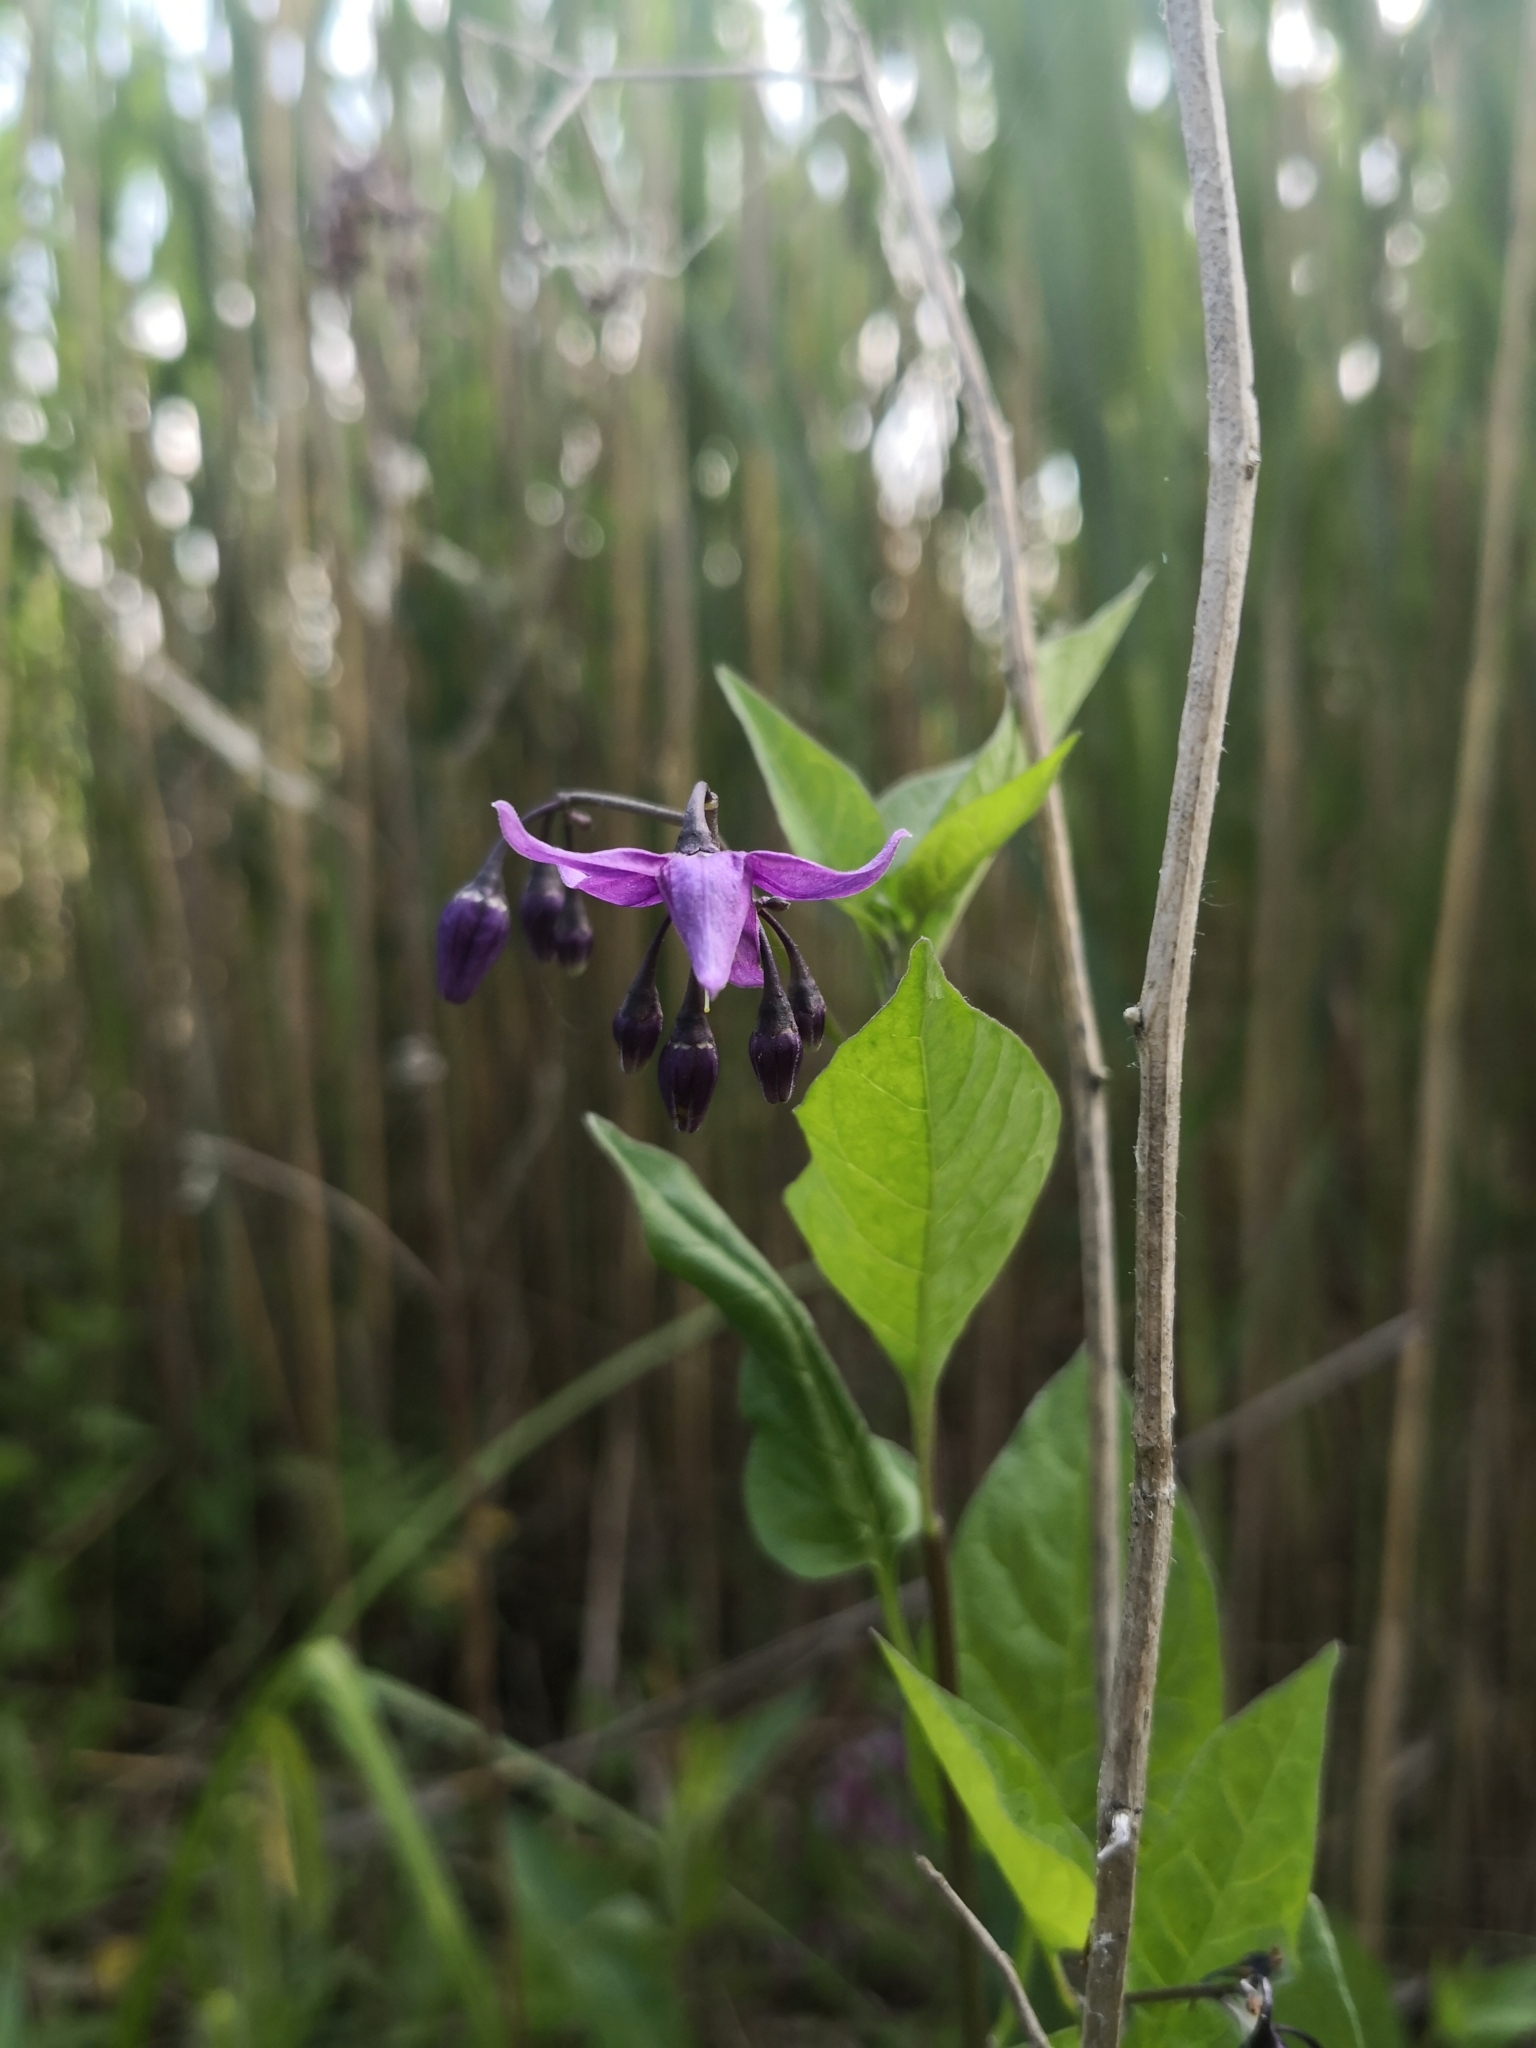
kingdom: Plantae
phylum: Tracheophyta
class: Magnoliopsida
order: Solanales
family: Solanaceae
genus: Solanum
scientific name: Solanum dulcamara
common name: Climbing nightshade
